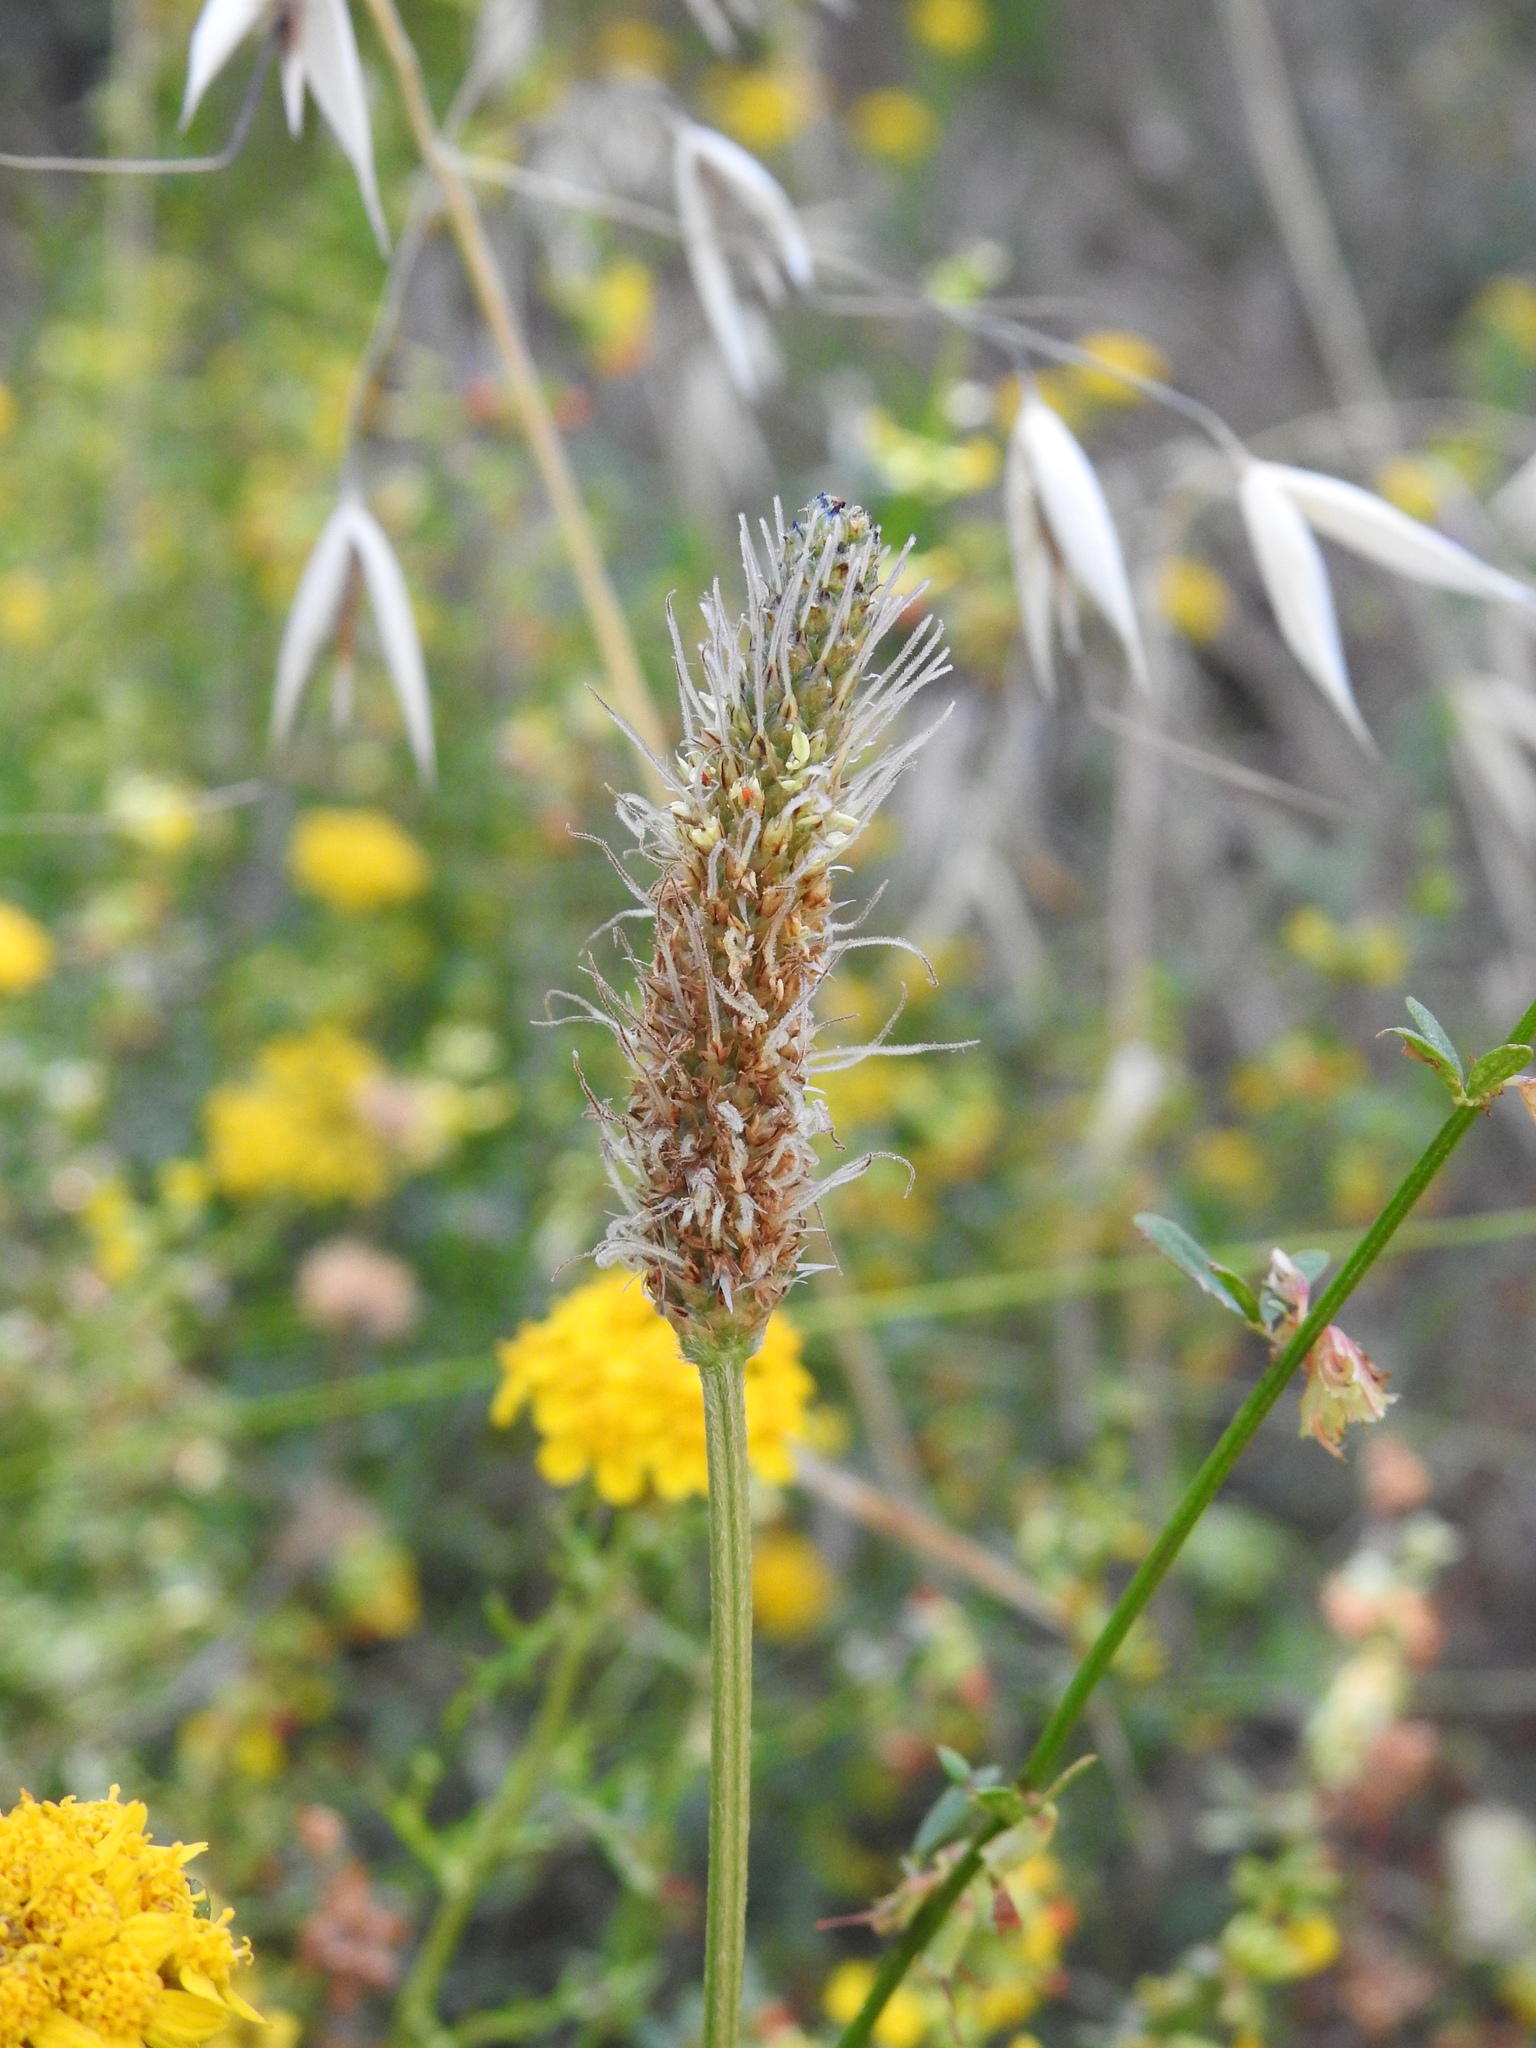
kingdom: Plantae
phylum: Tracheophyta
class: Magnoliopsida
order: Lamiales
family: Plantaginaceae
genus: Plantago
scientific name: Plantago lanceolata
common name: Ribwort plantain
